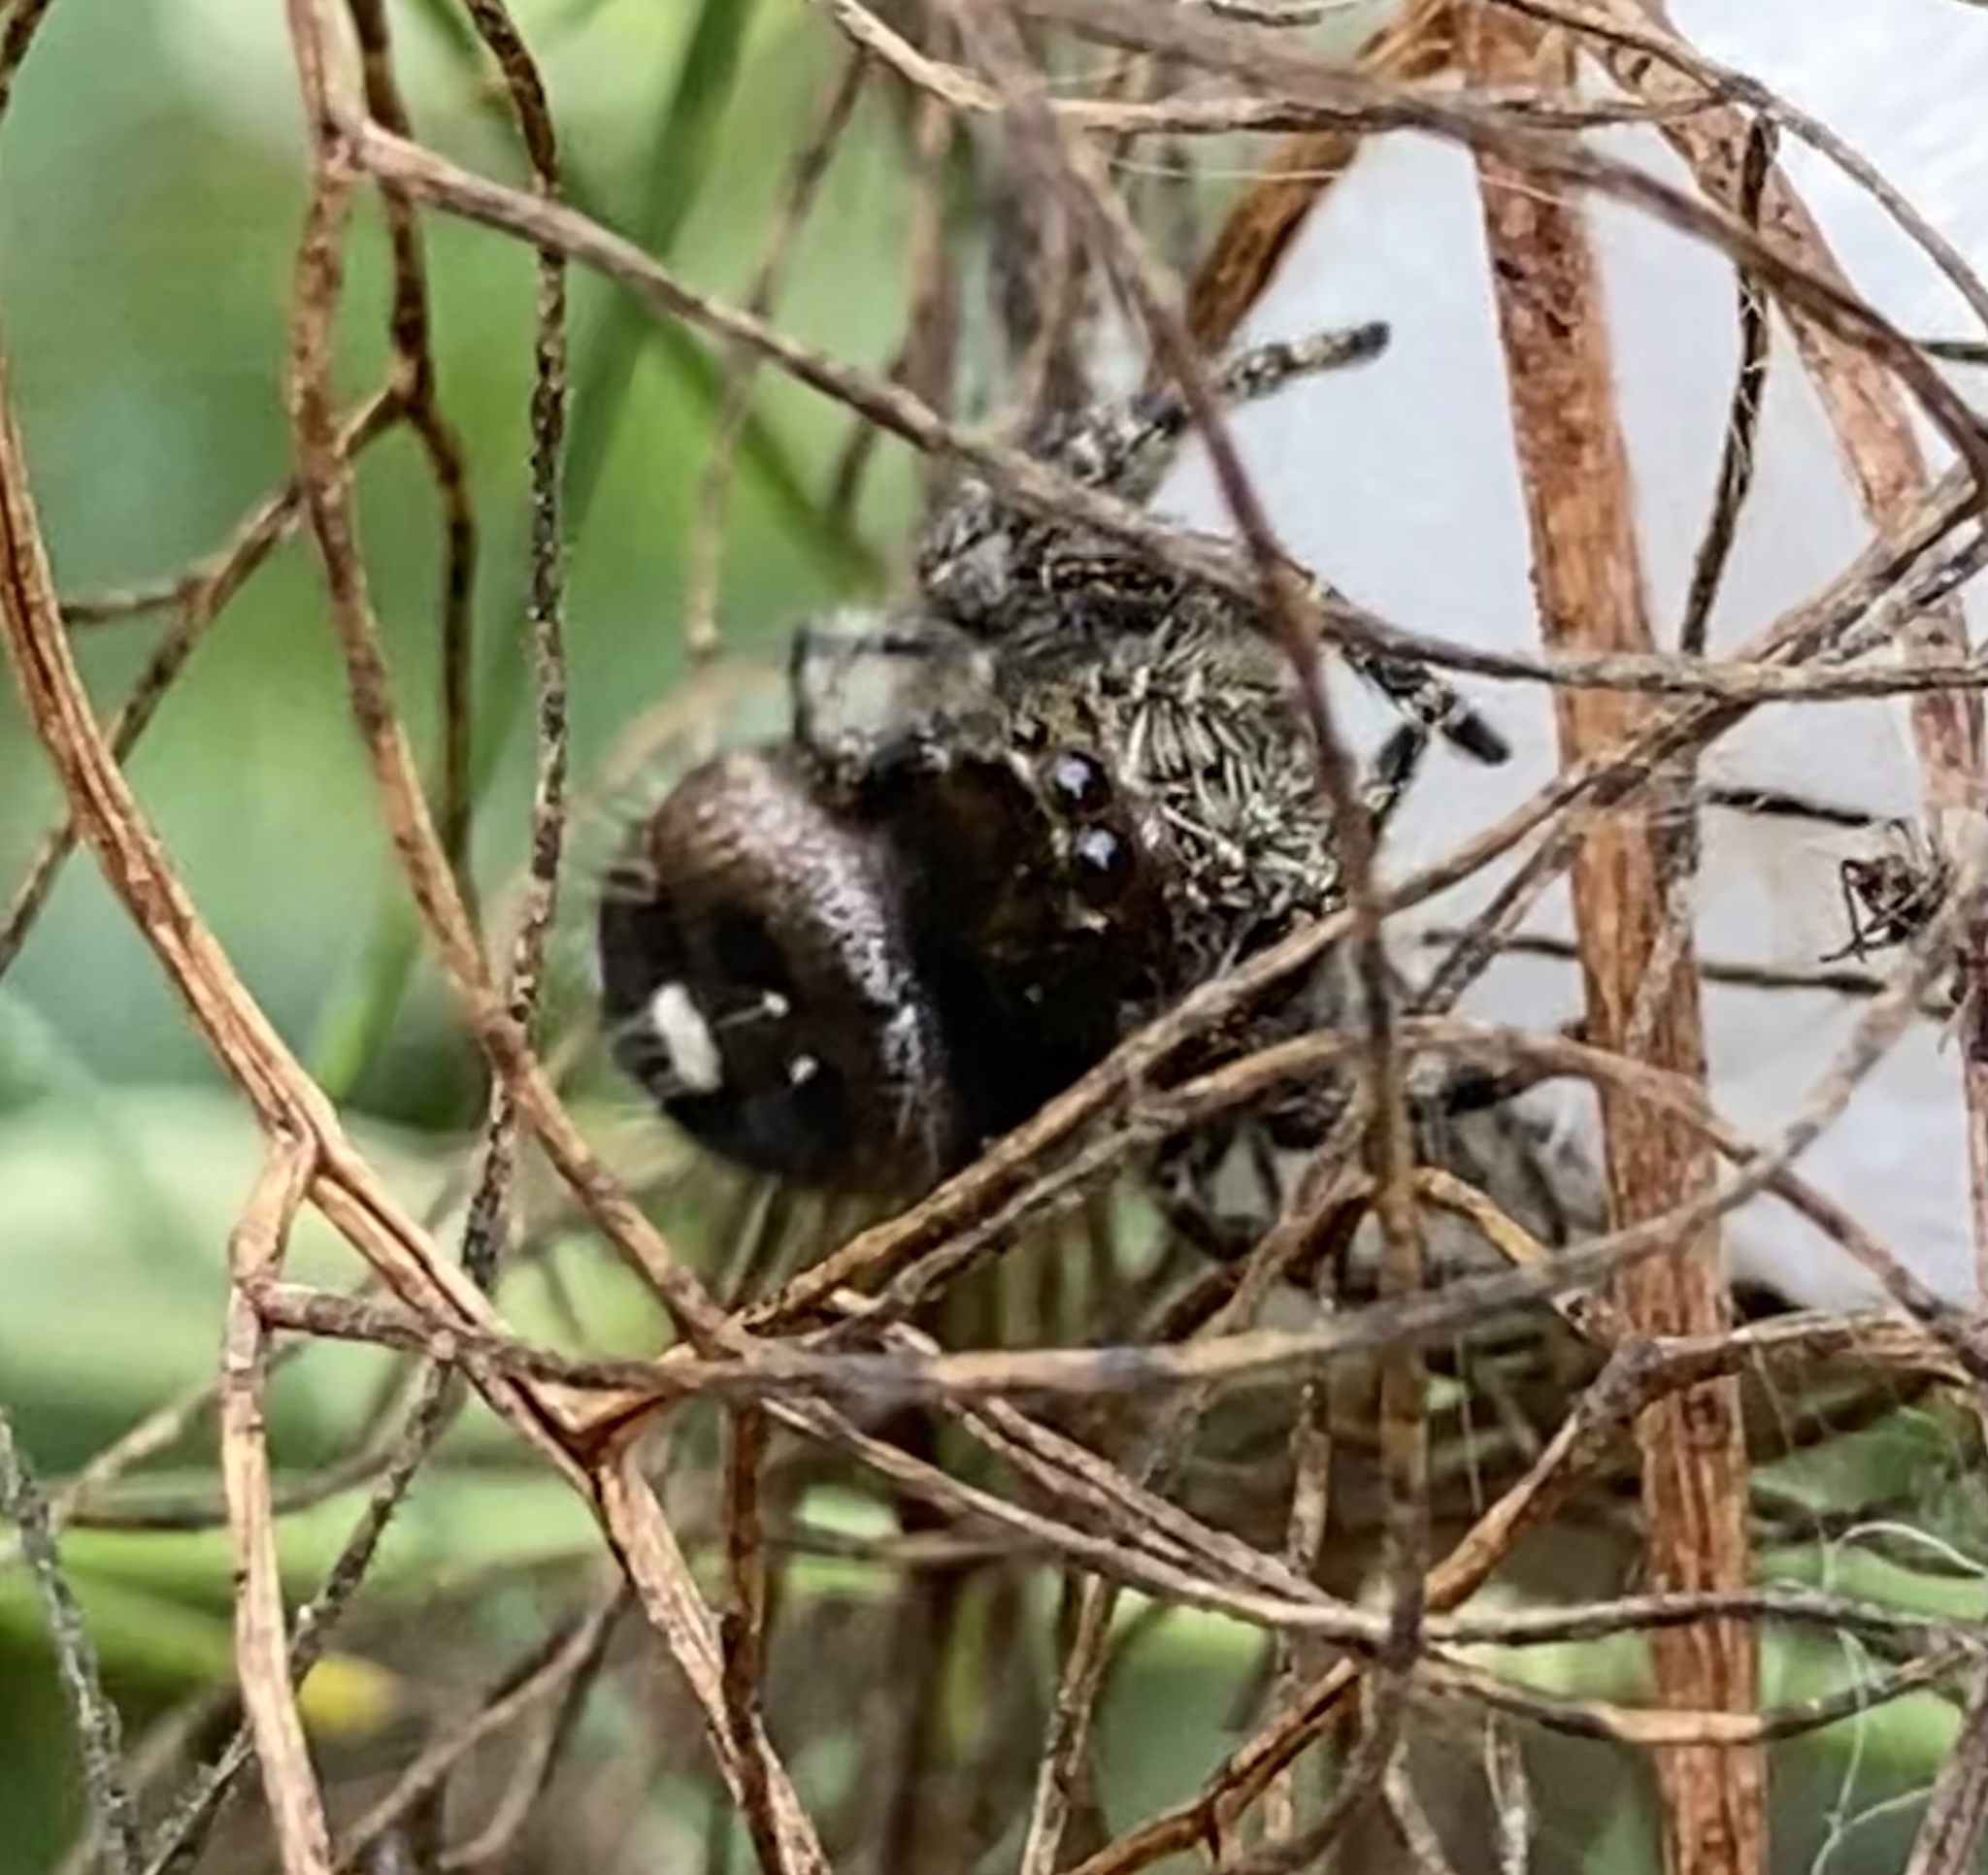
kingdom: Animalia
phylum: Arthropoda
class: Arachnida
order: Araneae
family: Salticidae
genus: Phidippus
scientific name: Phidippus audax
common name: Bold jumper
